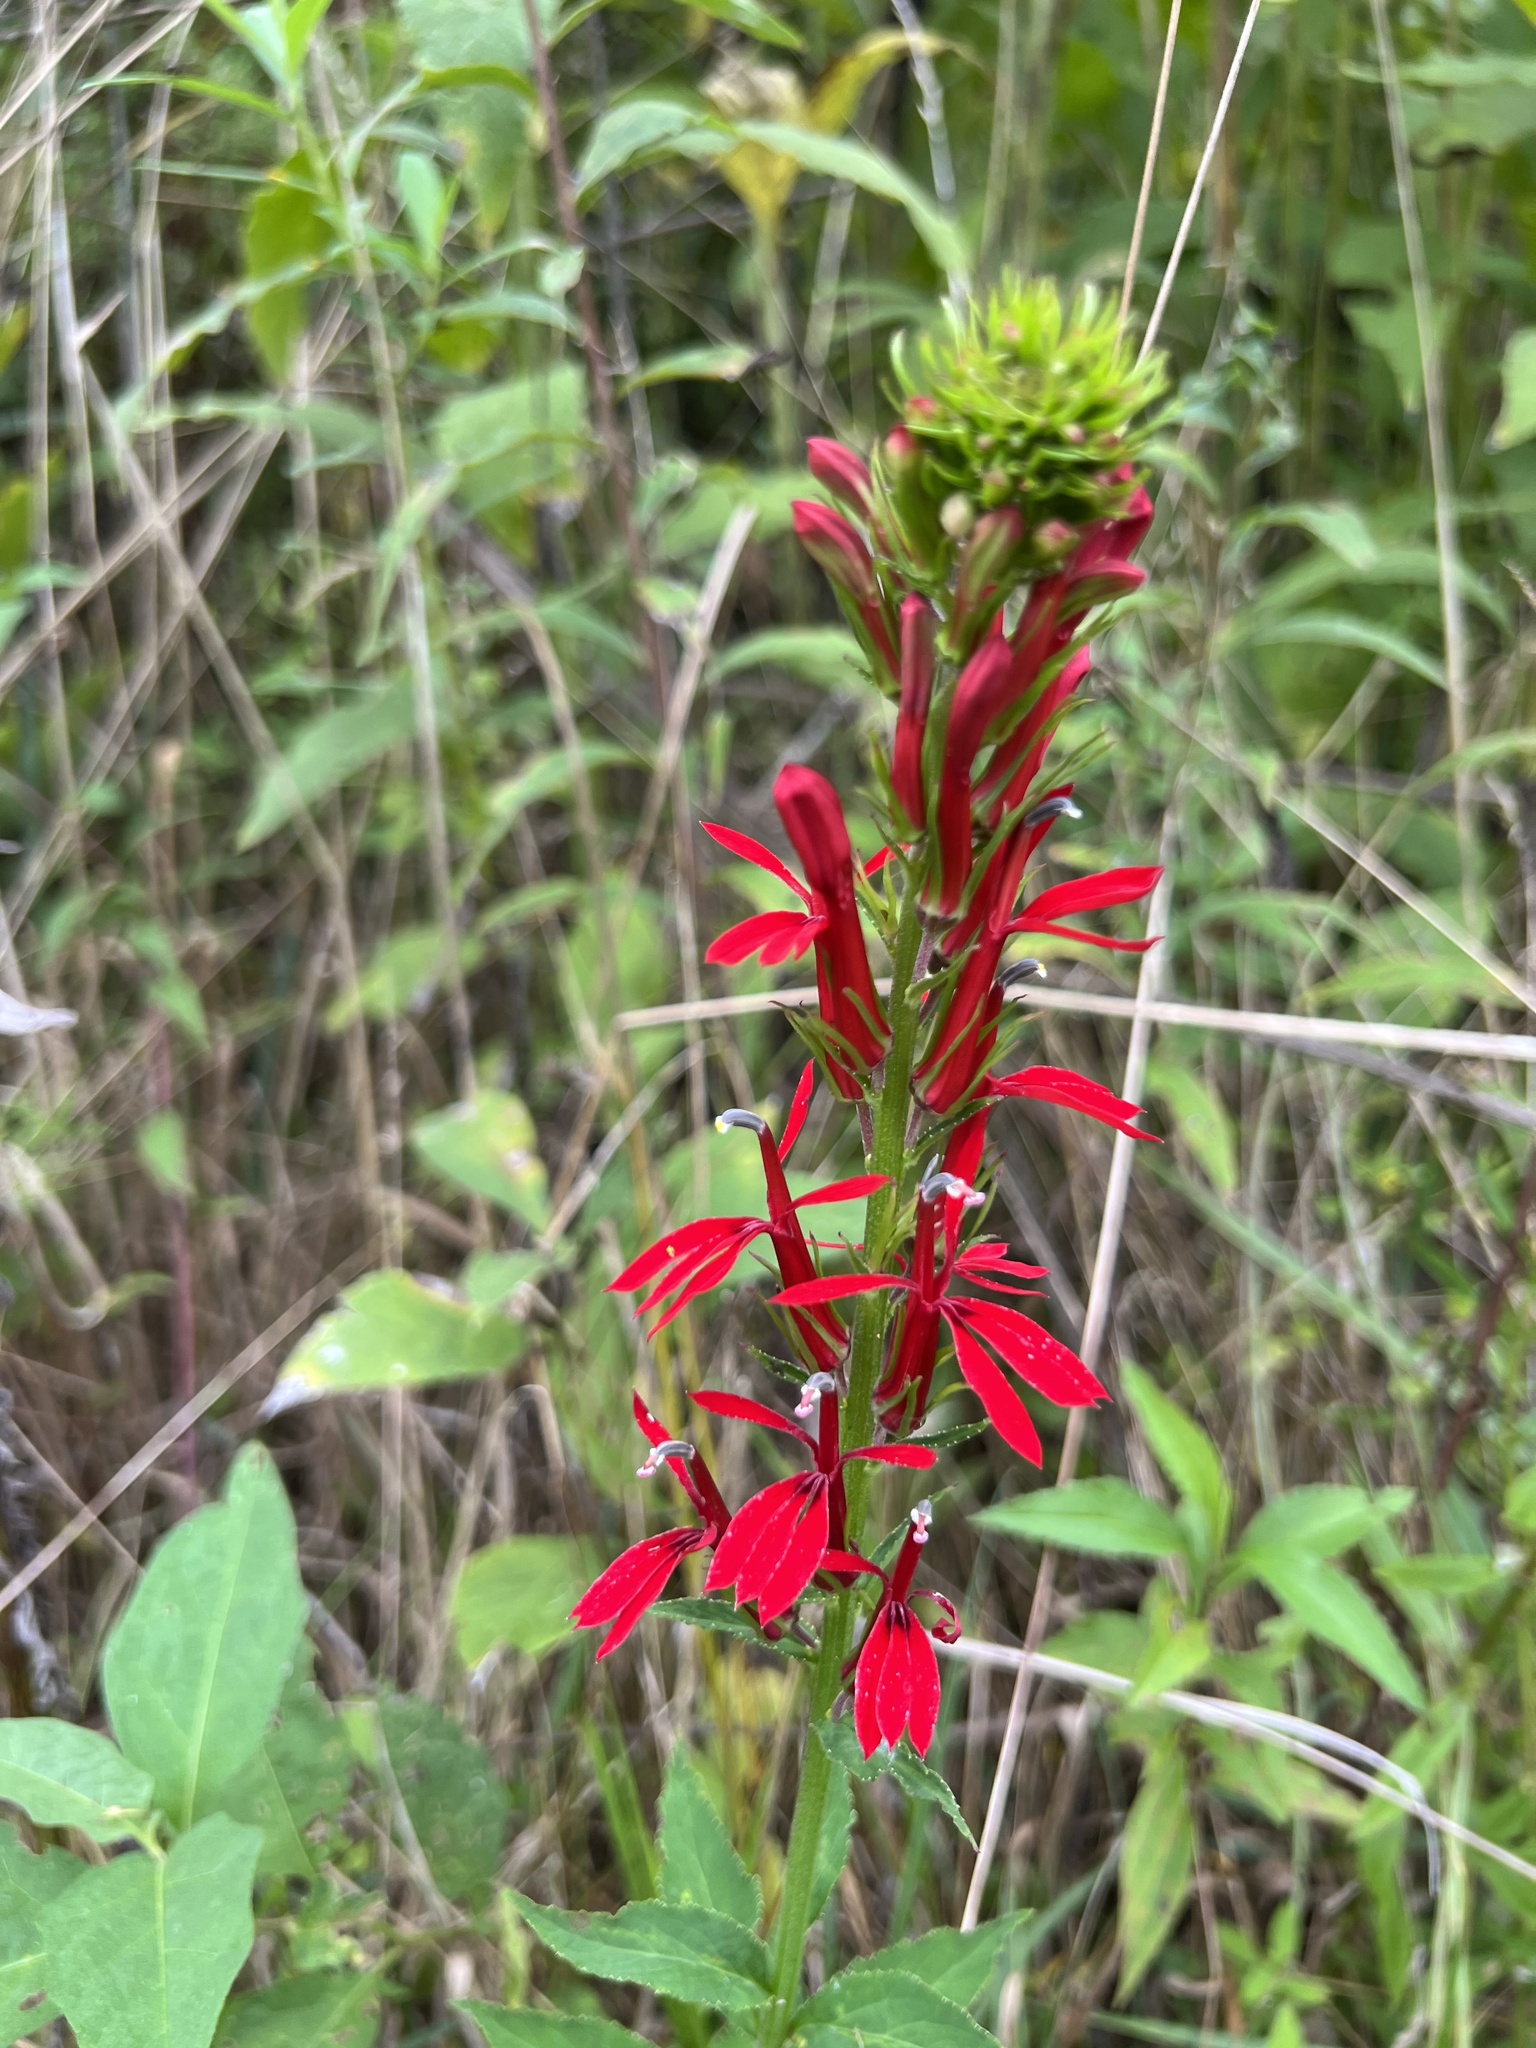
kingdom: Plantae
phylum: Tracheophyta
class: Magnoliopsida
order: Asterales
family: Campanulaceae
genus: Lobelia
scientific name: Lobelia cardinalis
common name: Cardinal flower
